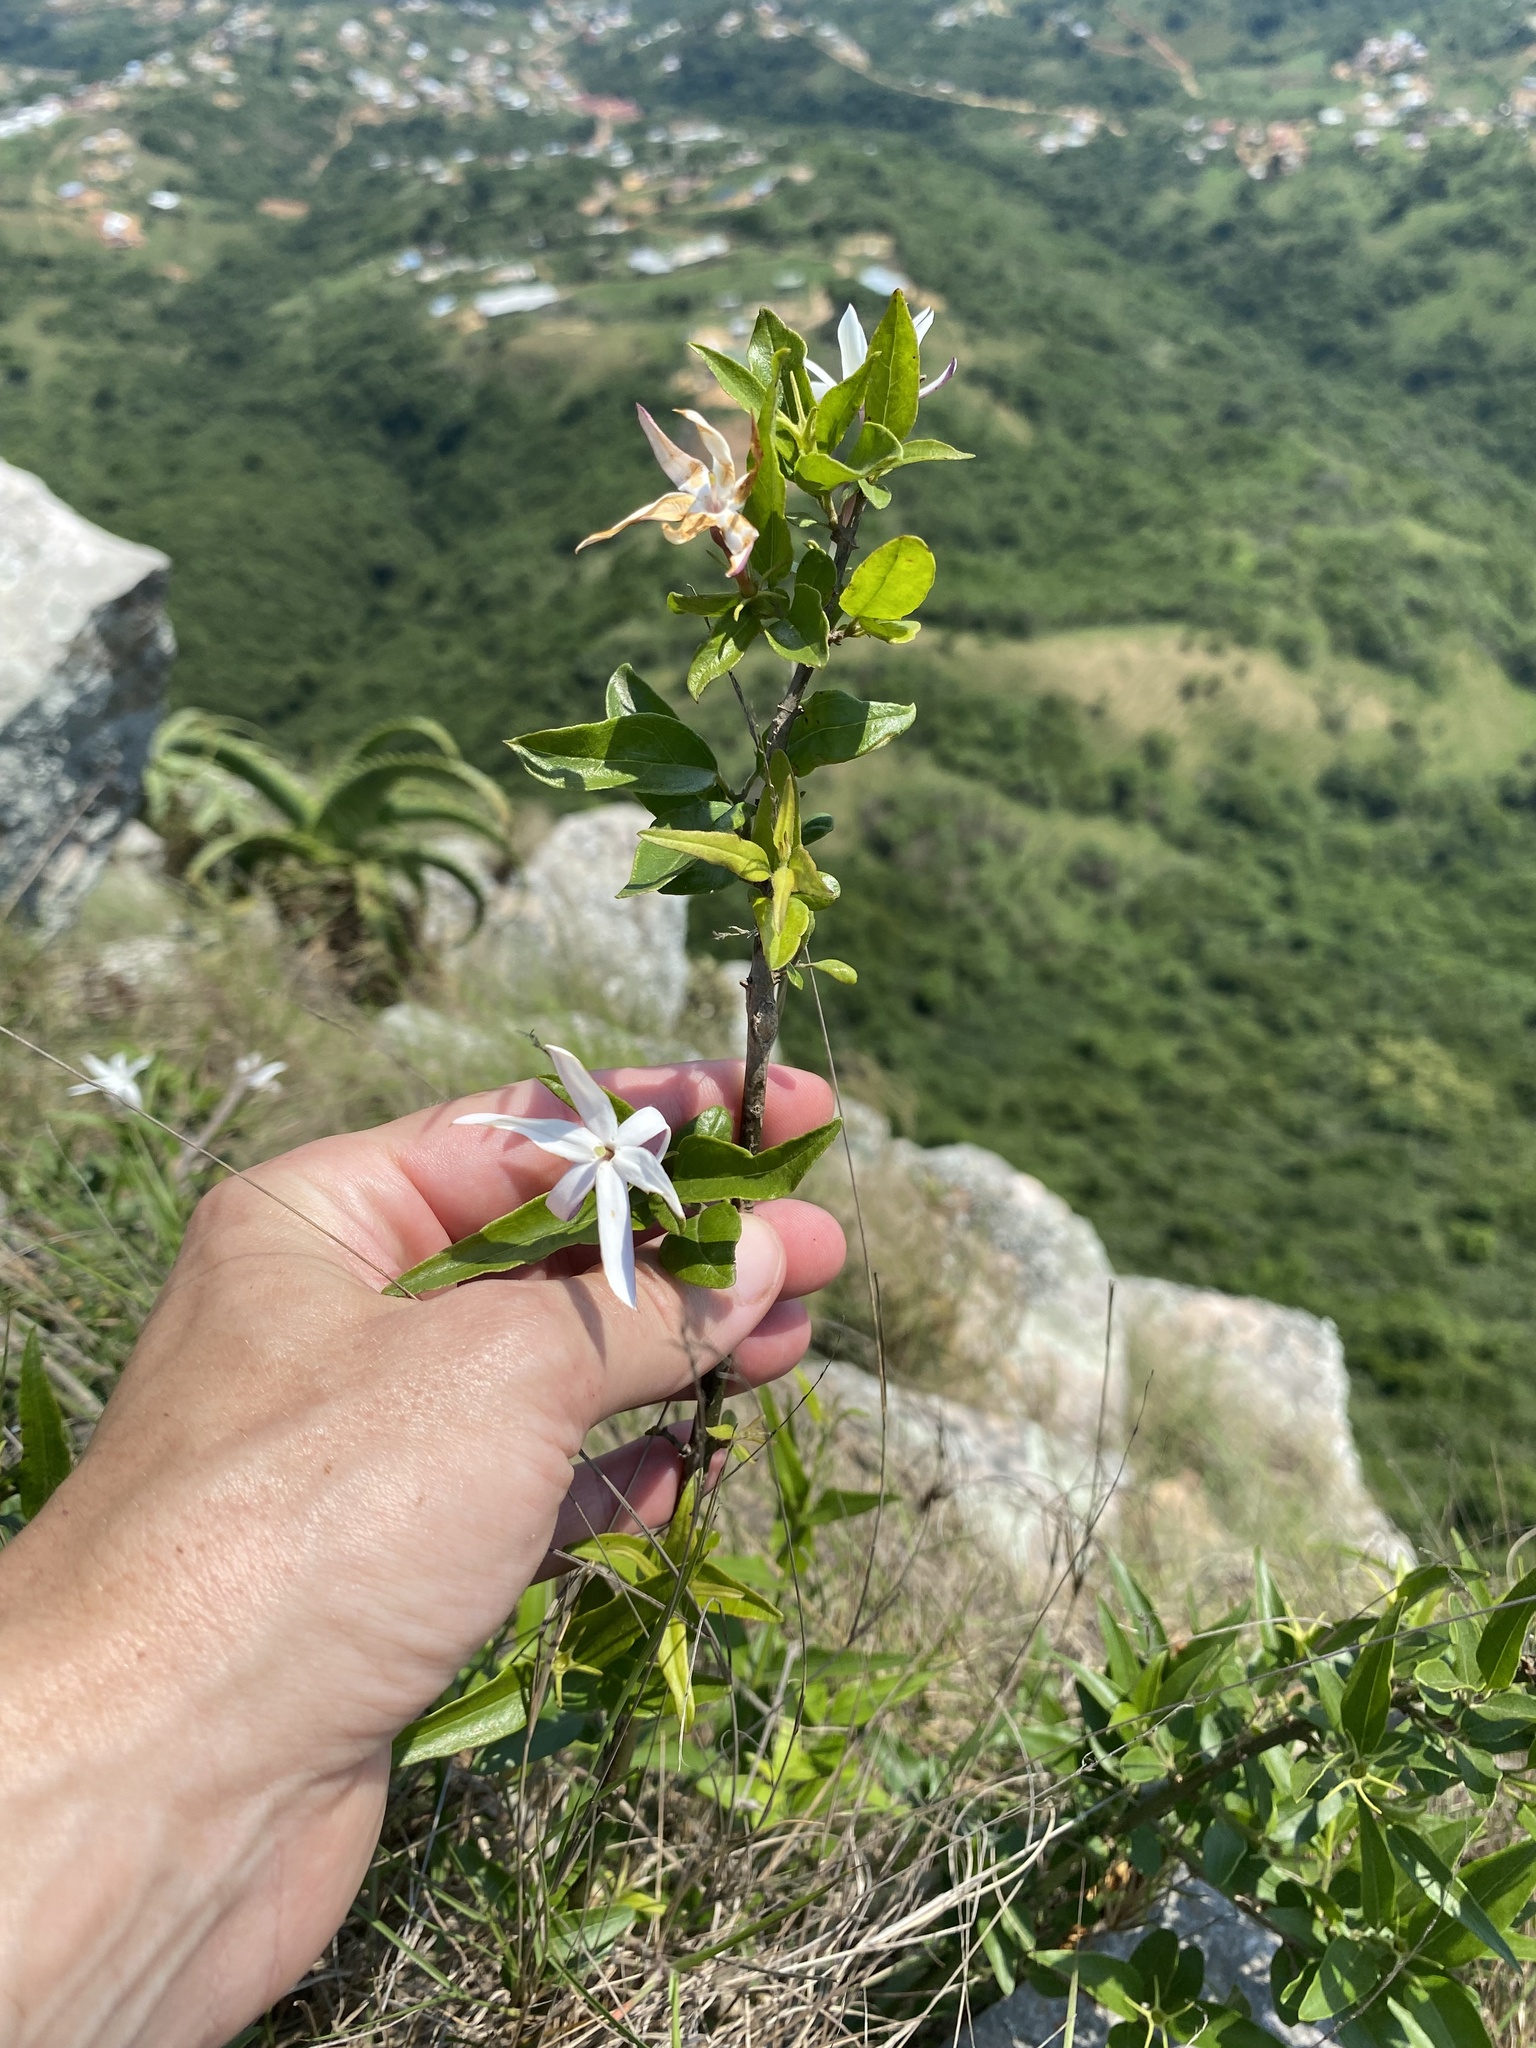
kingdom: Plantae
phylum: Tracheophyta
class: Magnoliopsida
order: Lamiales
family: Oleaceae
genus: Jasminum
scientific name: Jasminum multipartitum
